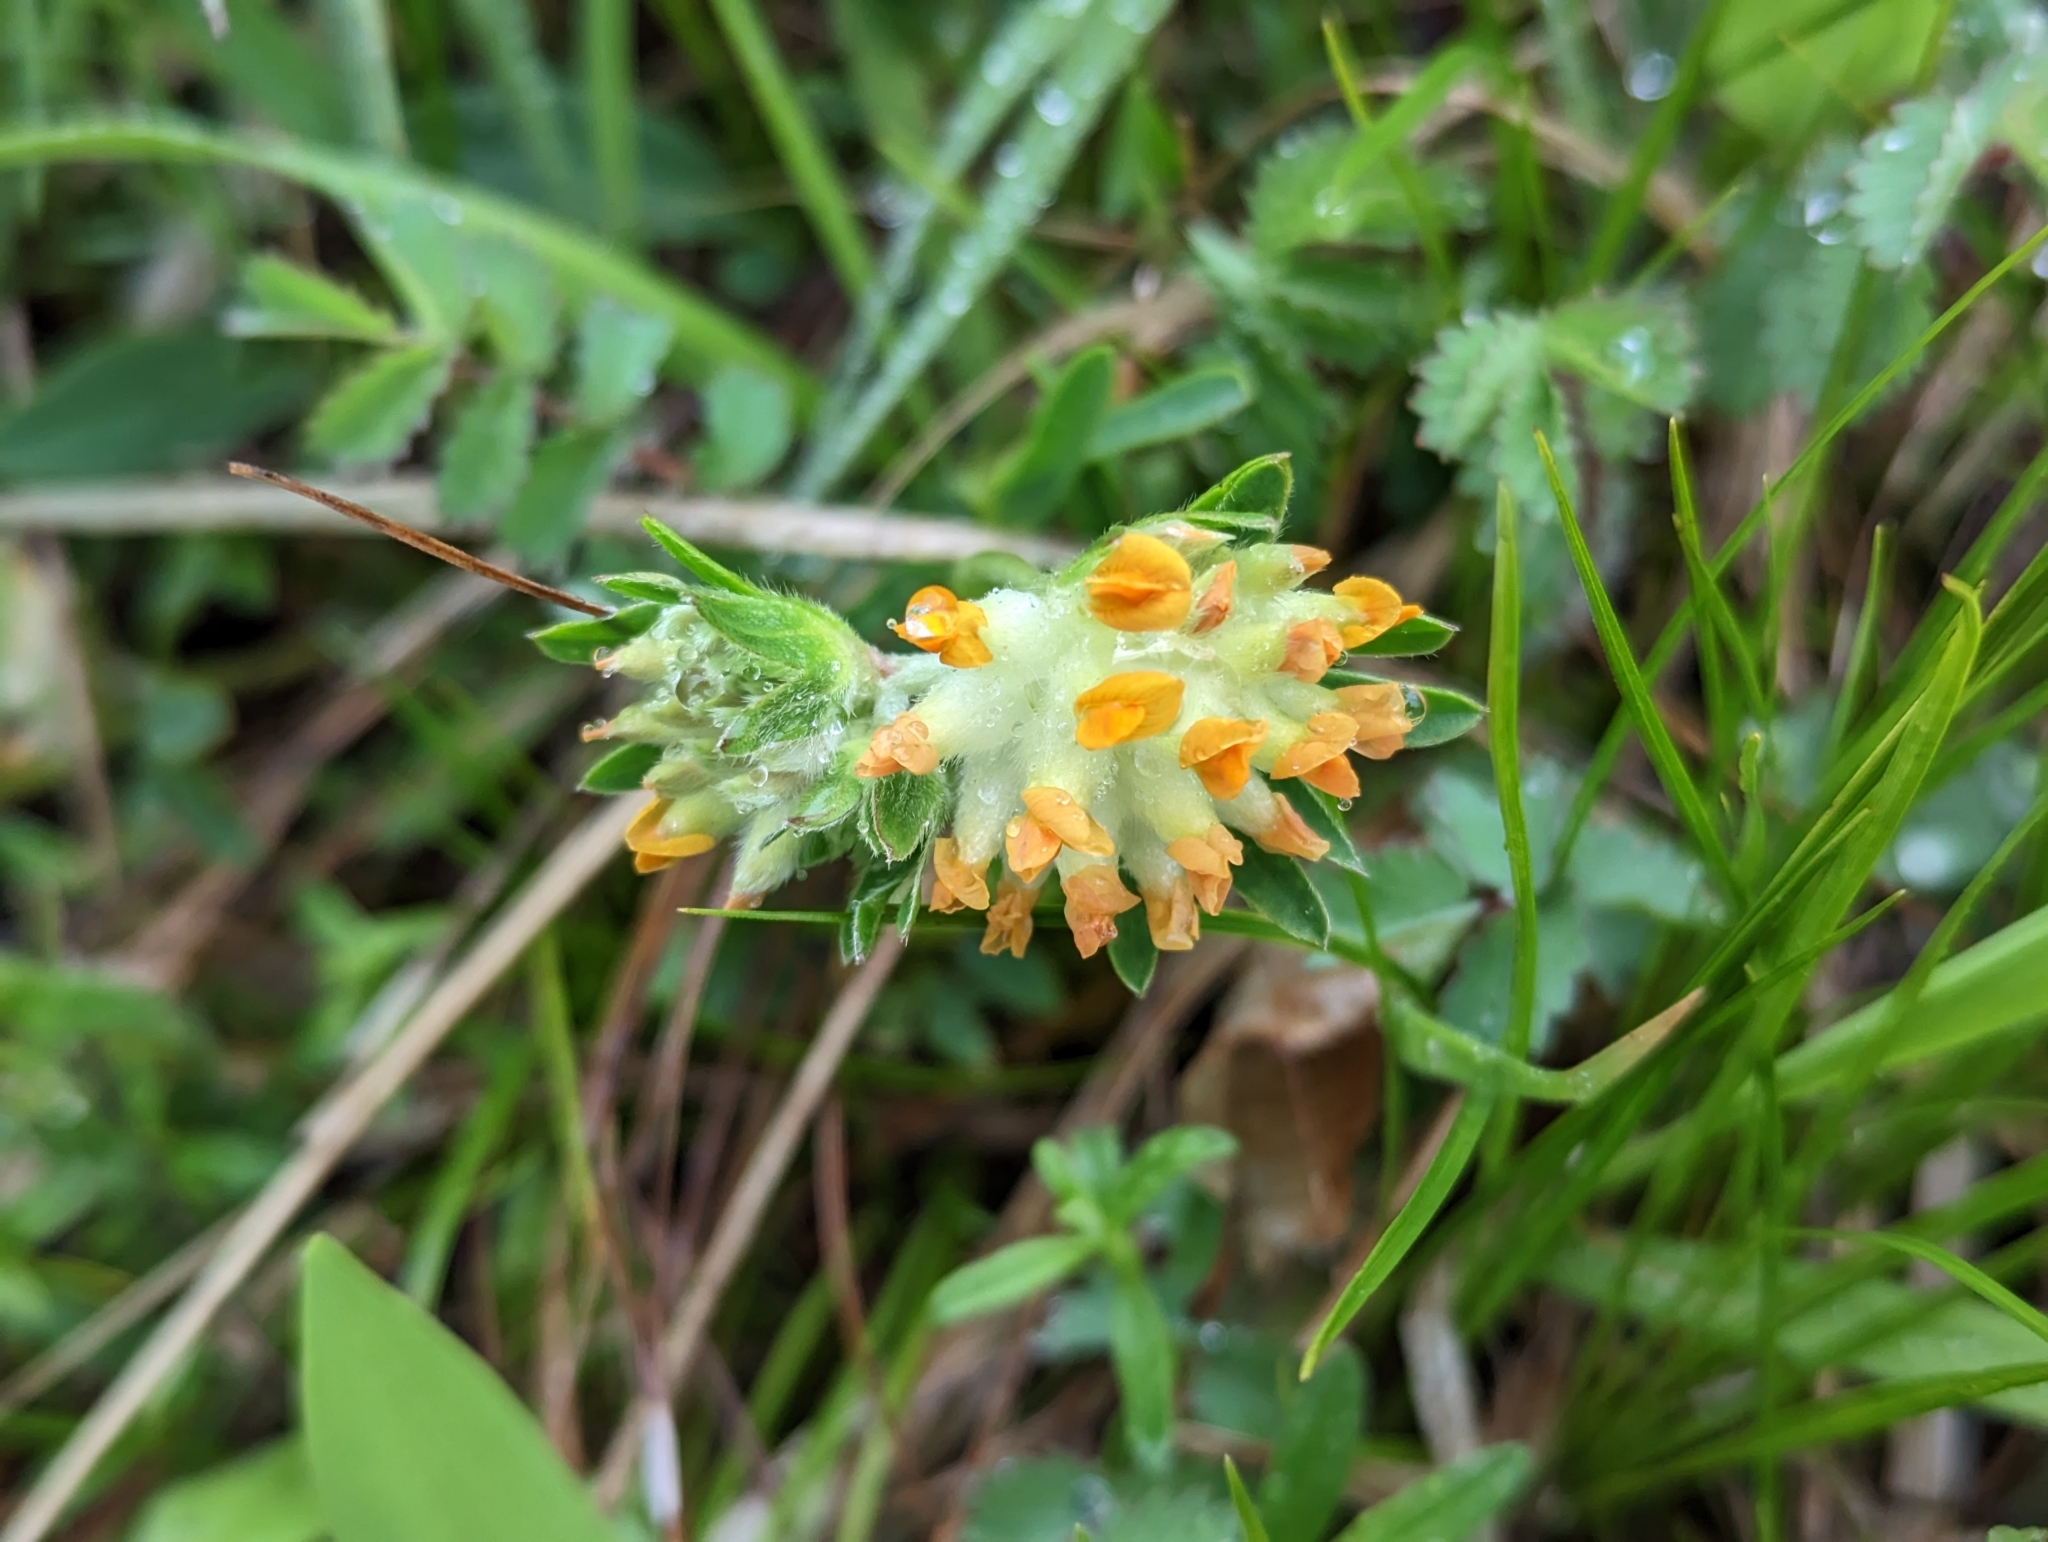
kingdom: Plantae
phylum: Tracheophyta
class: Magnoliopsida
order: Fabales
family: Fabaceae
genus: Anthyllis
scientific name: Anthyllis vulneraria
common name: Kidney vetch
